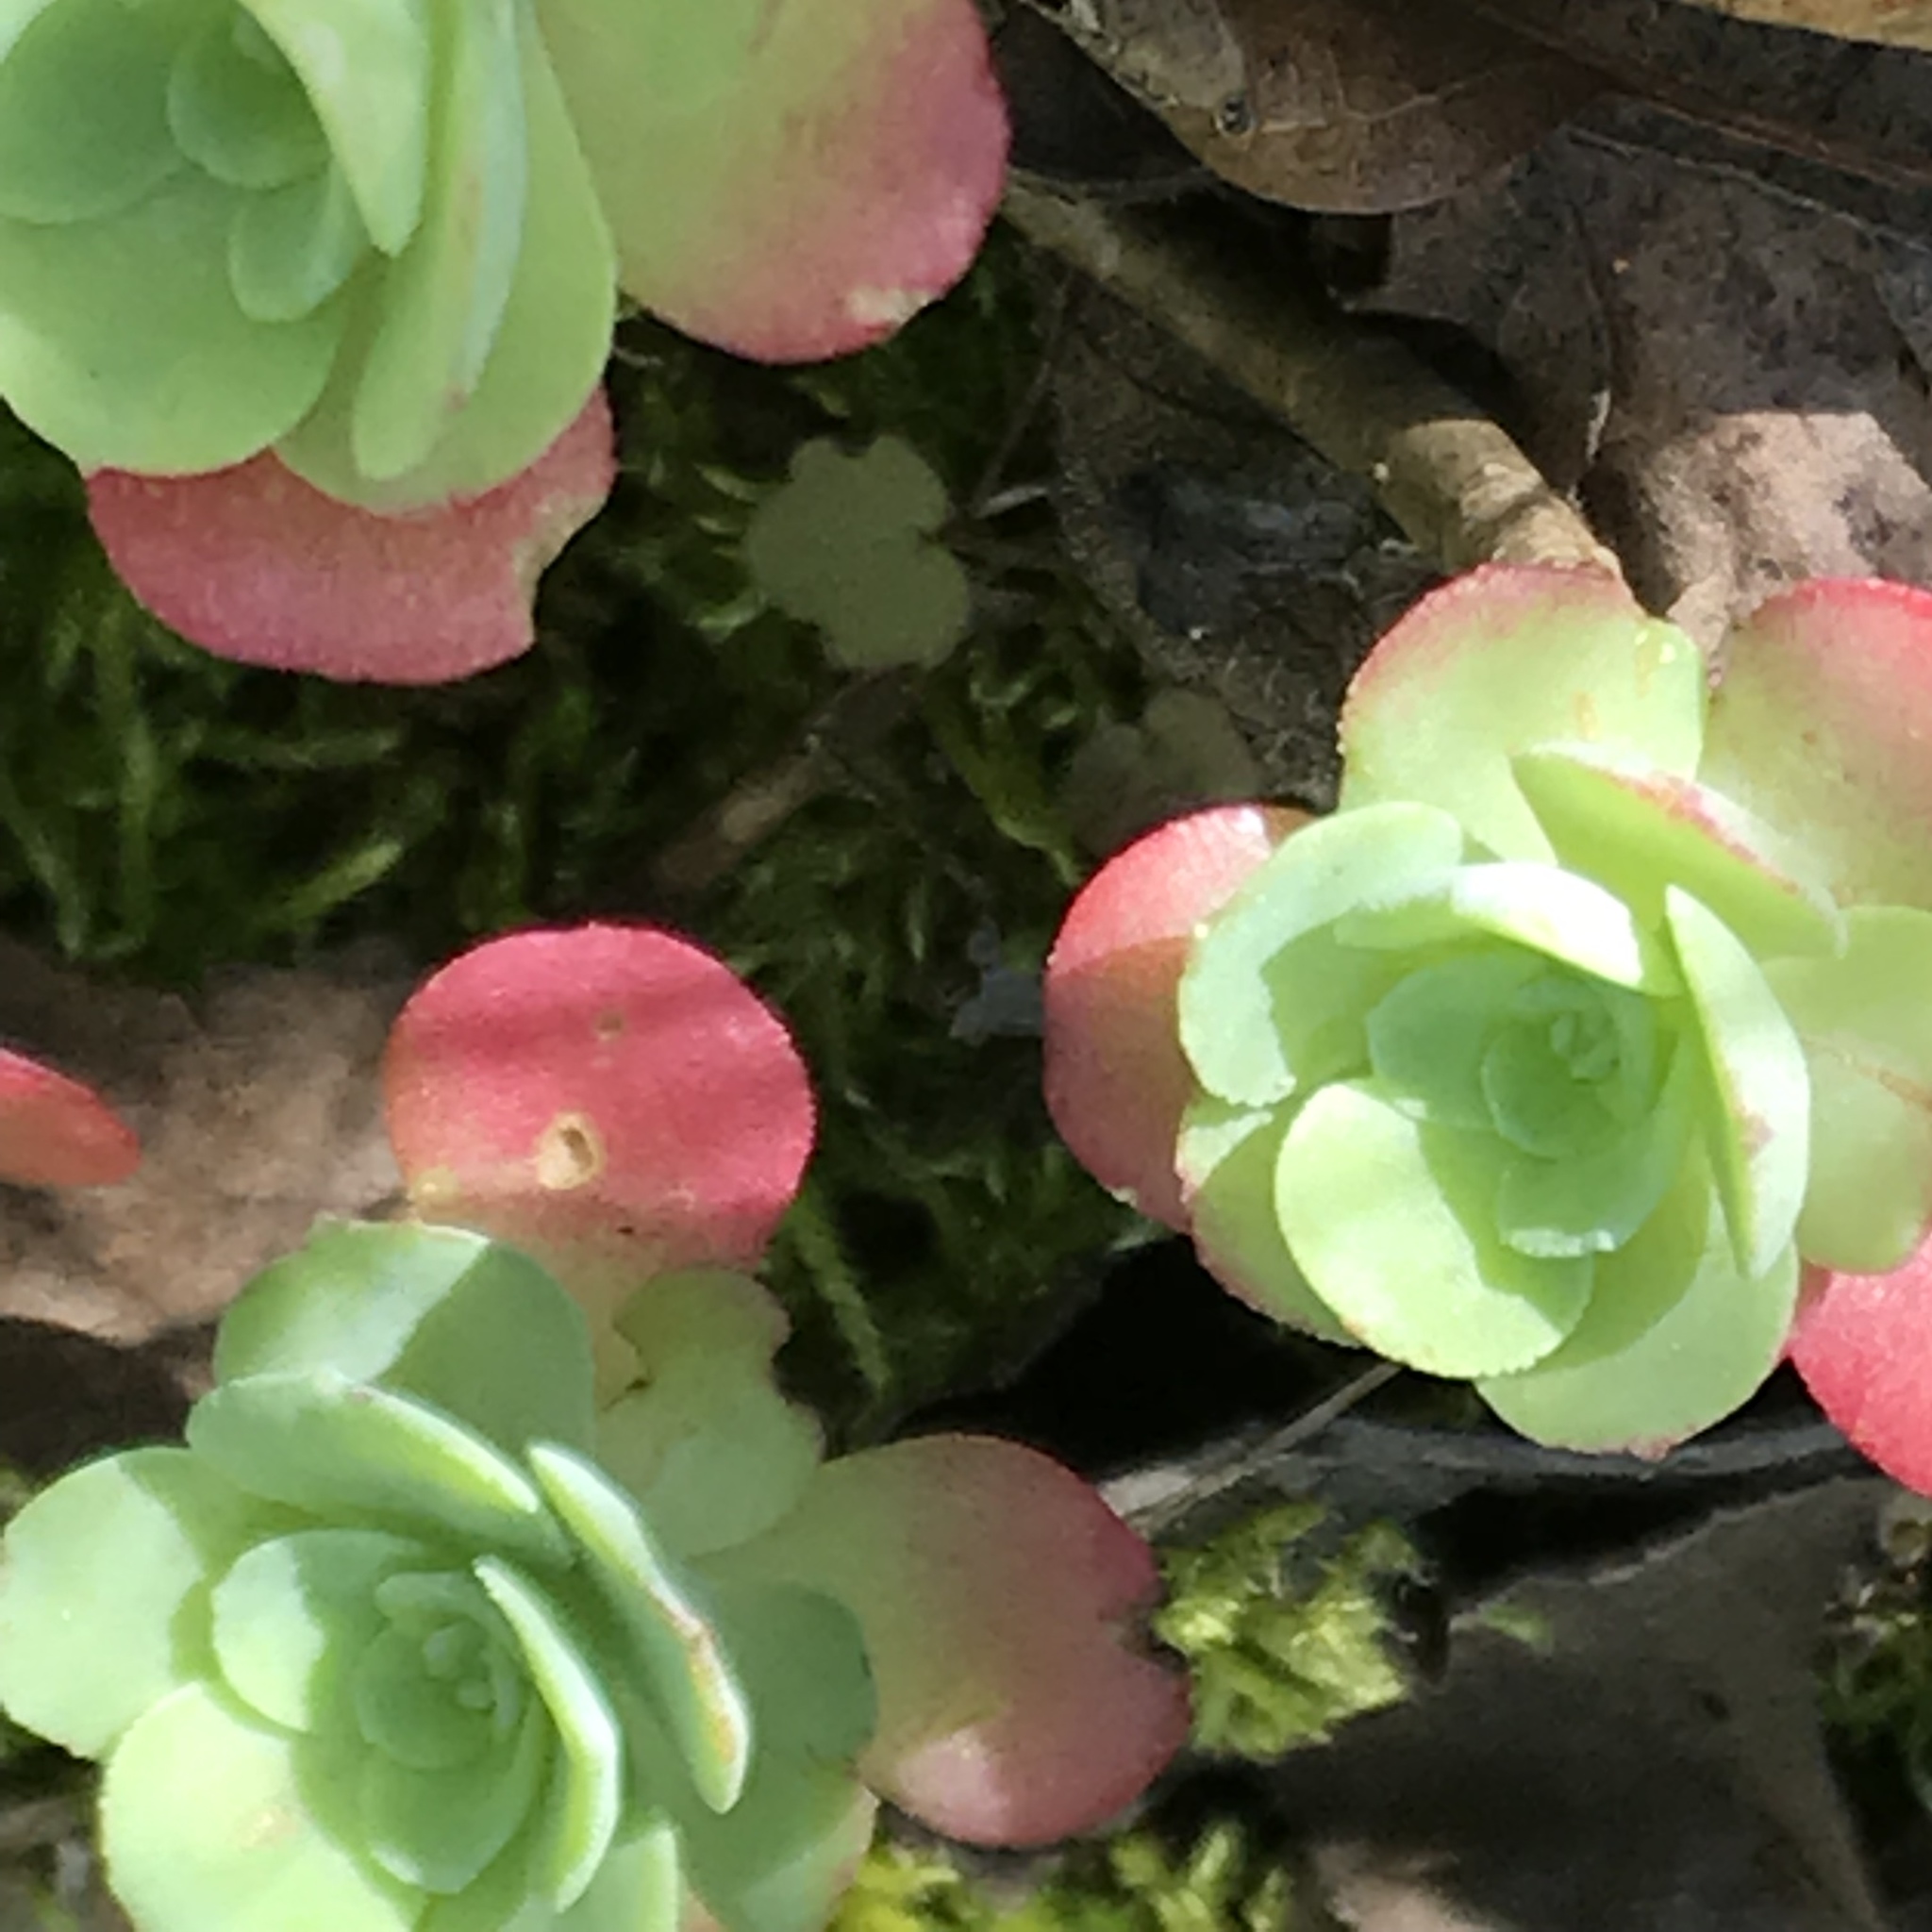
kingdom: Plantae
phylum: Tracheophyta
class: Magnoliopsida
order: Saxifragales
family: Crassulaceae
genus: Sedum
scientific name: Sedum palmeri
